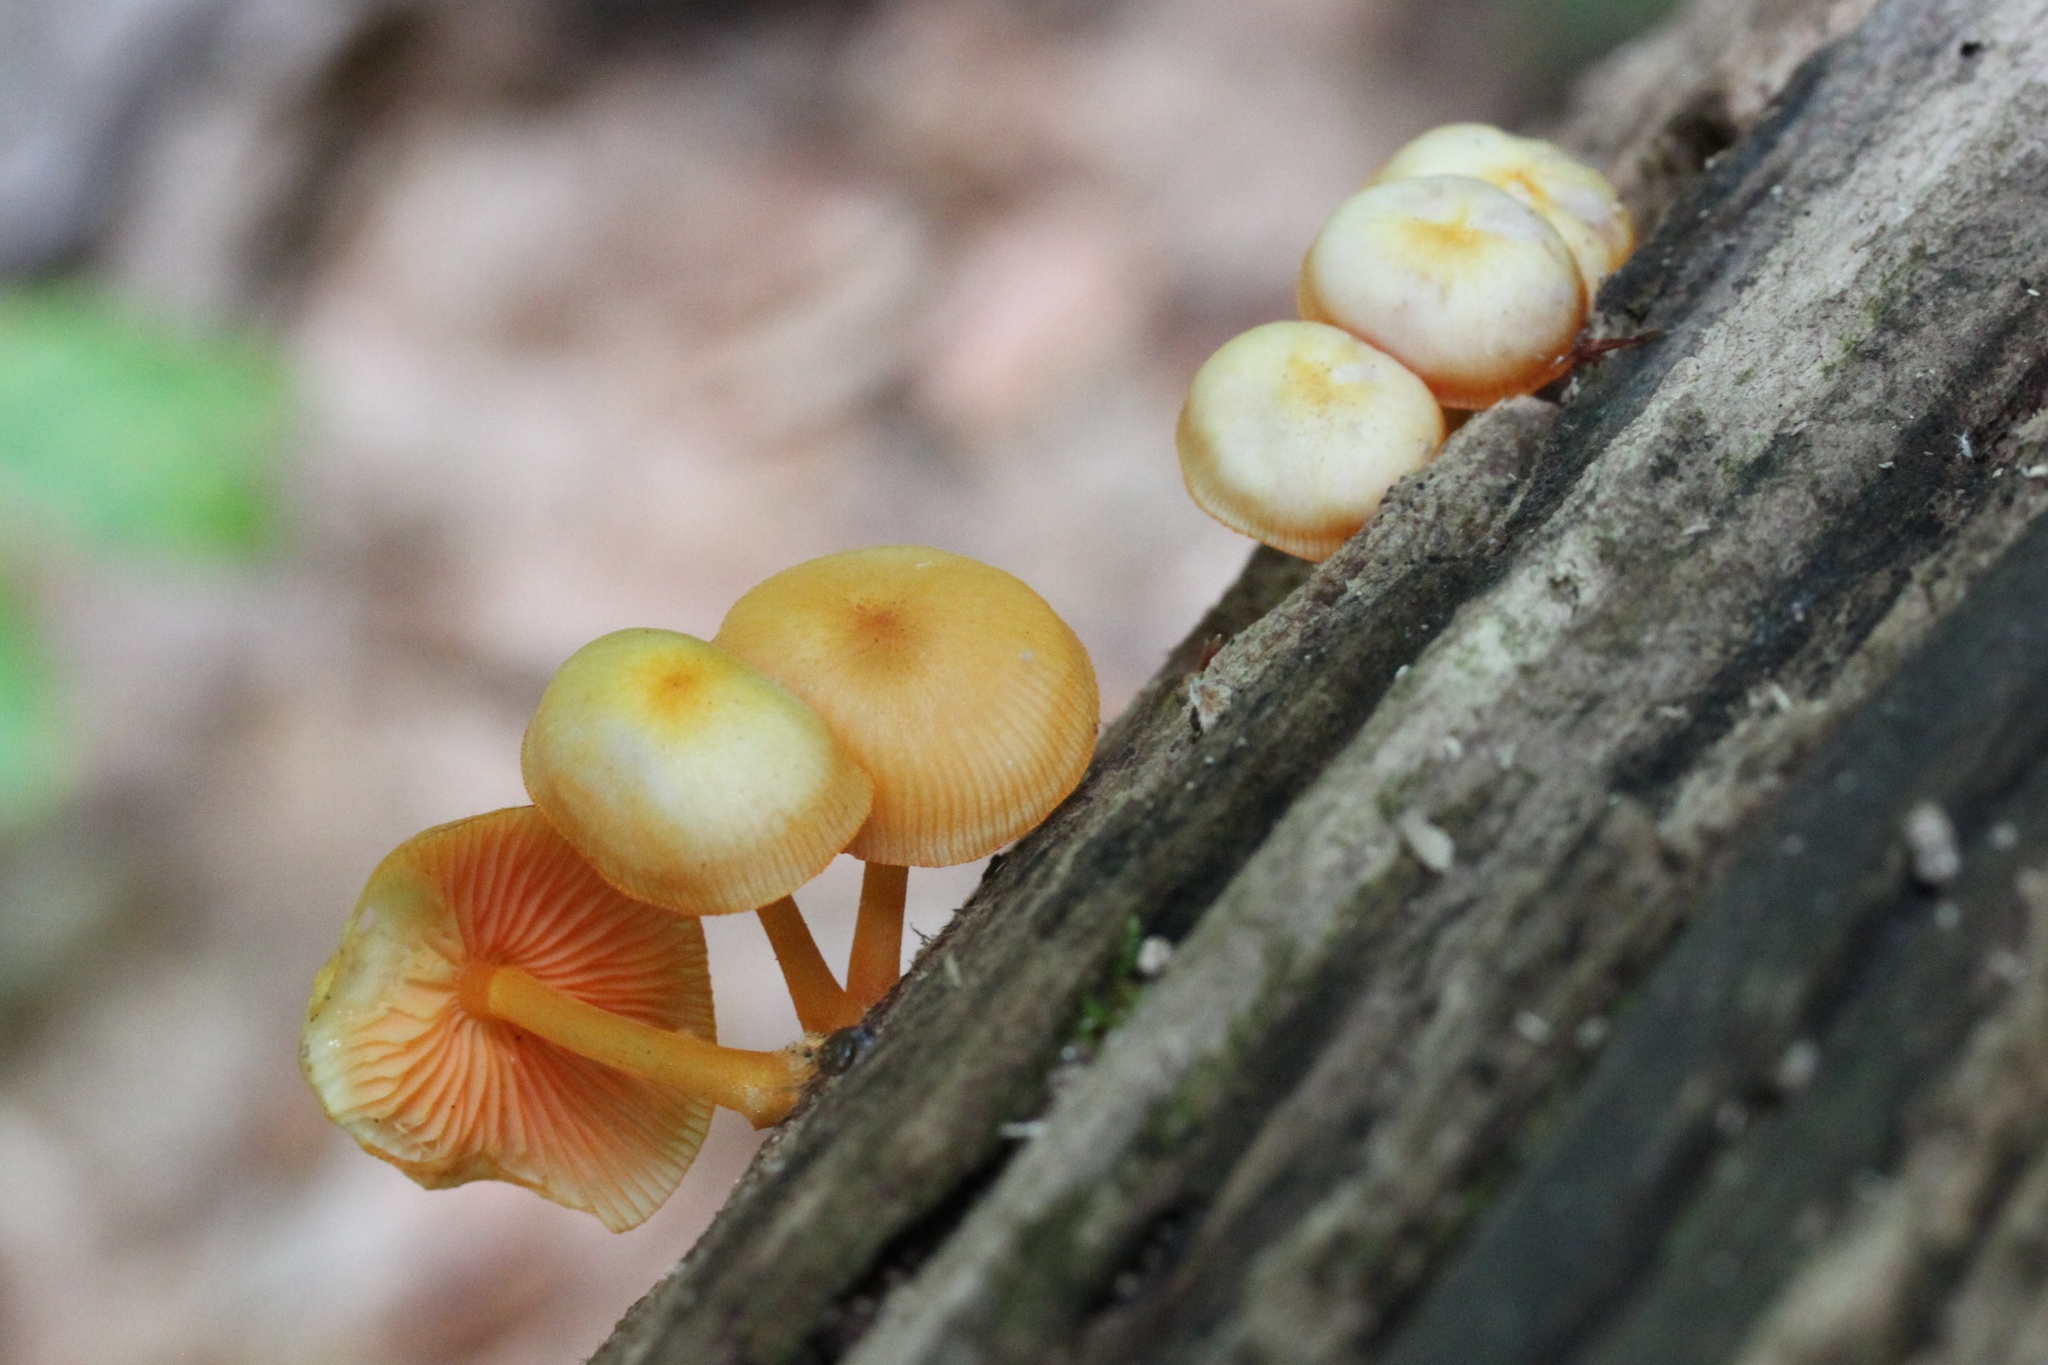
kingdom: Fungi
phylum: Basidiomycota
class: Agaricomycetes
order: Agaricales
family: Mycenaceae
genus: Mycena
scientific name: Mycena leaiana
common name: Orange mycena
